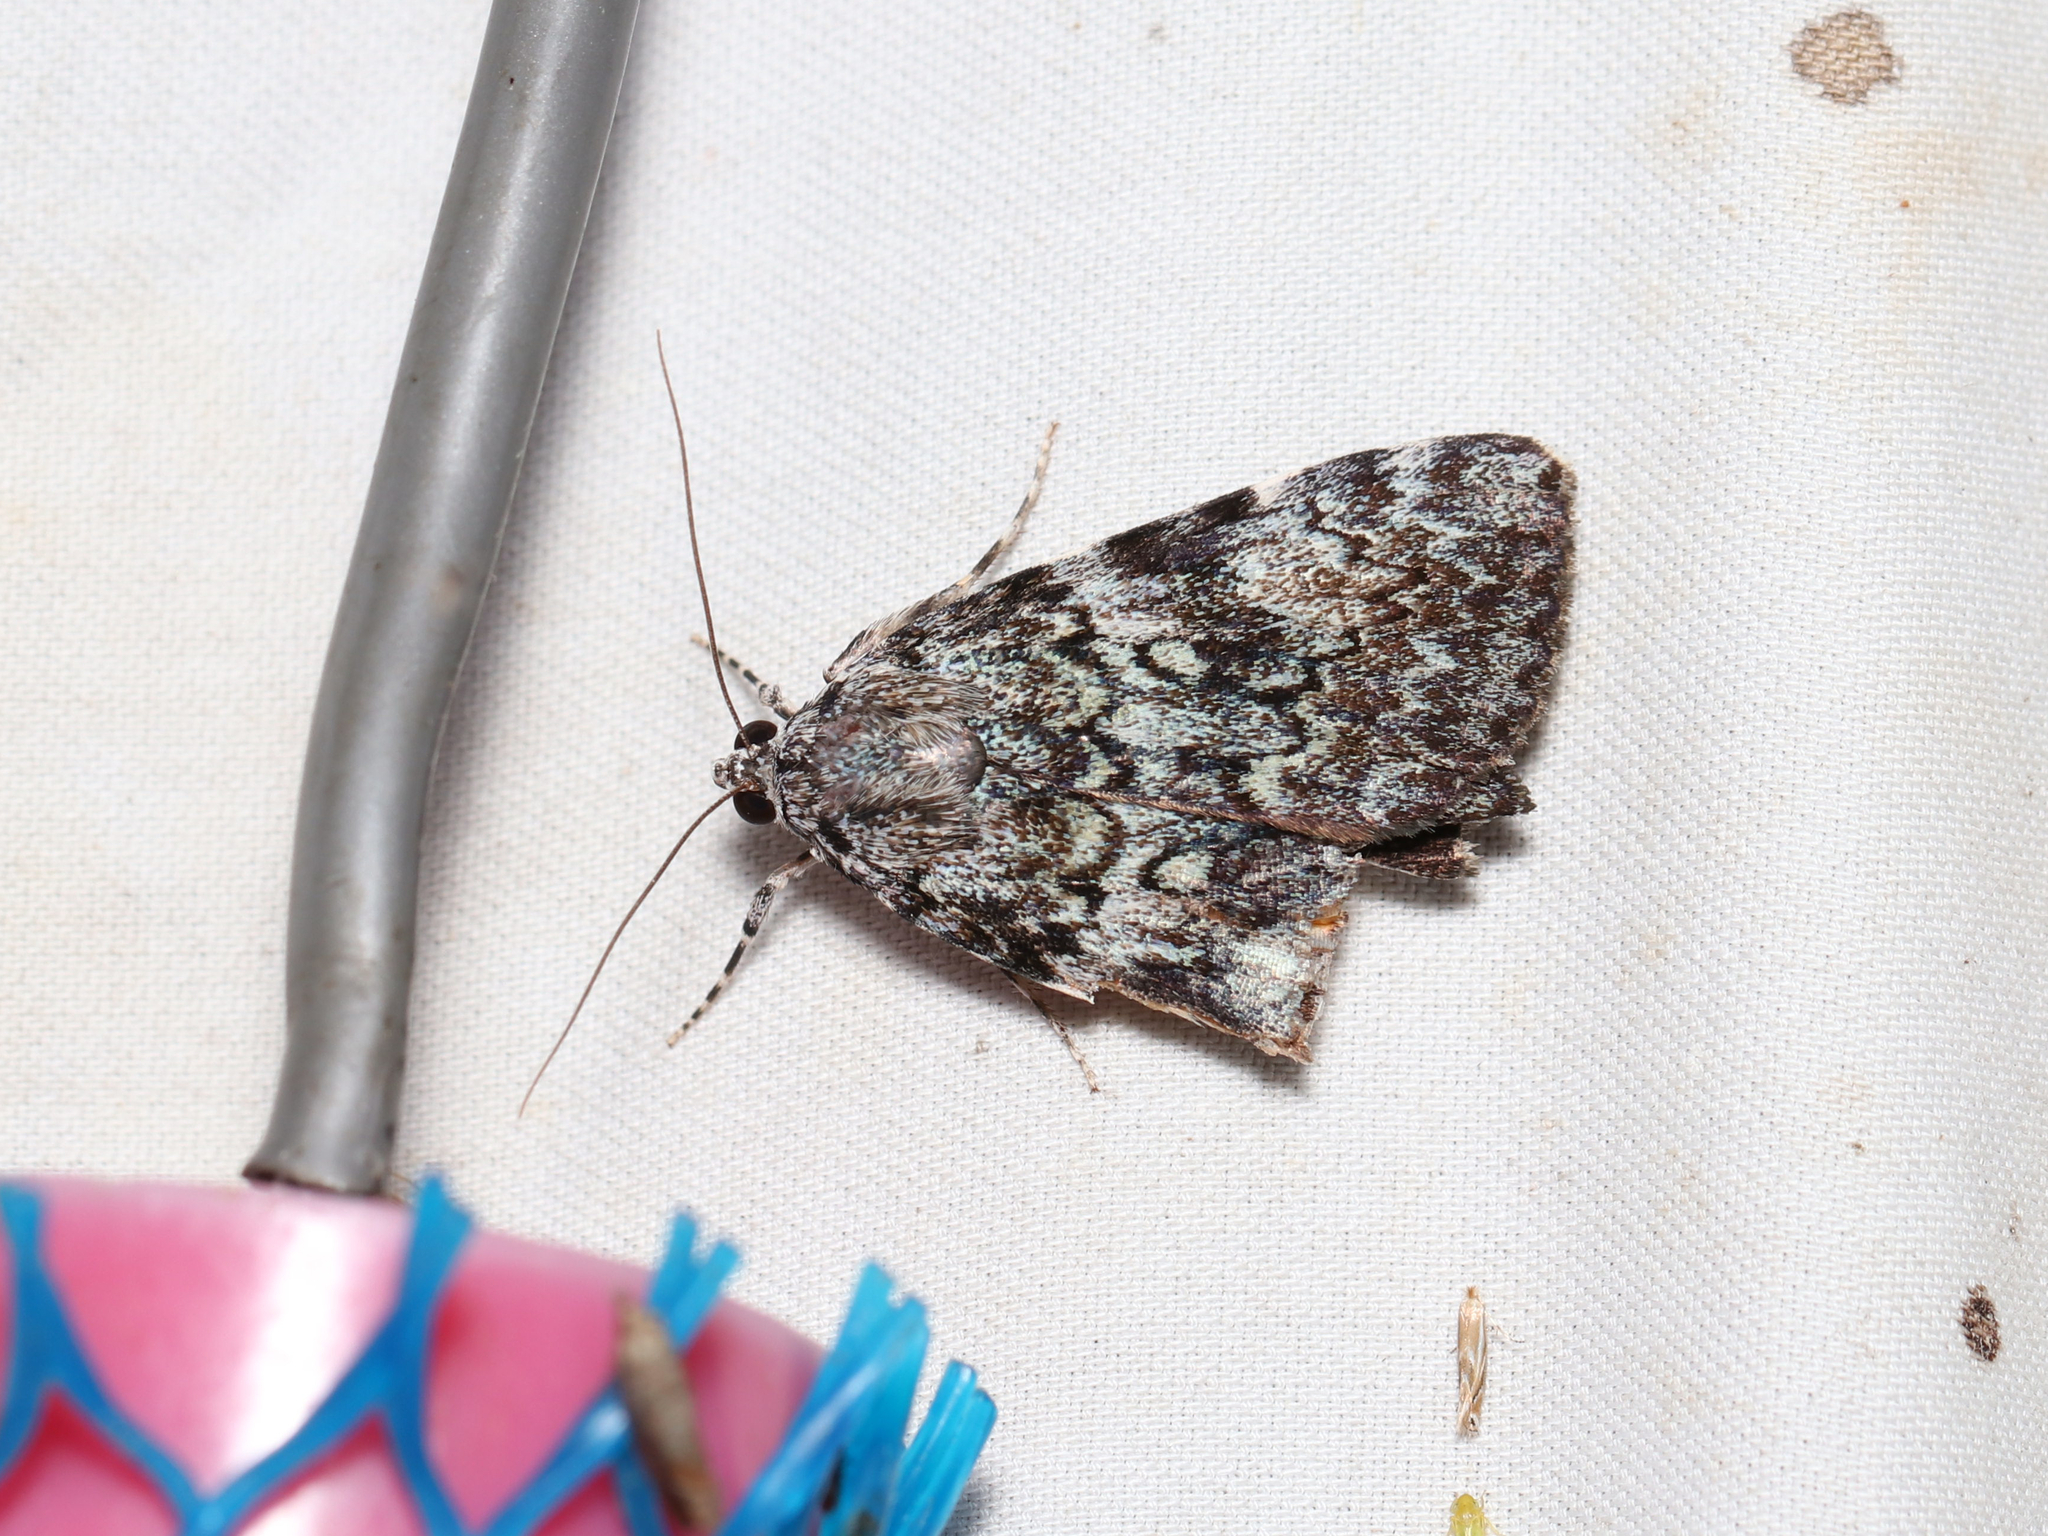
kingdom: Animalia
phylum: Arthropoda
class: Insecta
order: Lepidoptera
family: Erebidae
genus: Catocala
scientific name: Catocala lineella
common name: Little lined underwing
